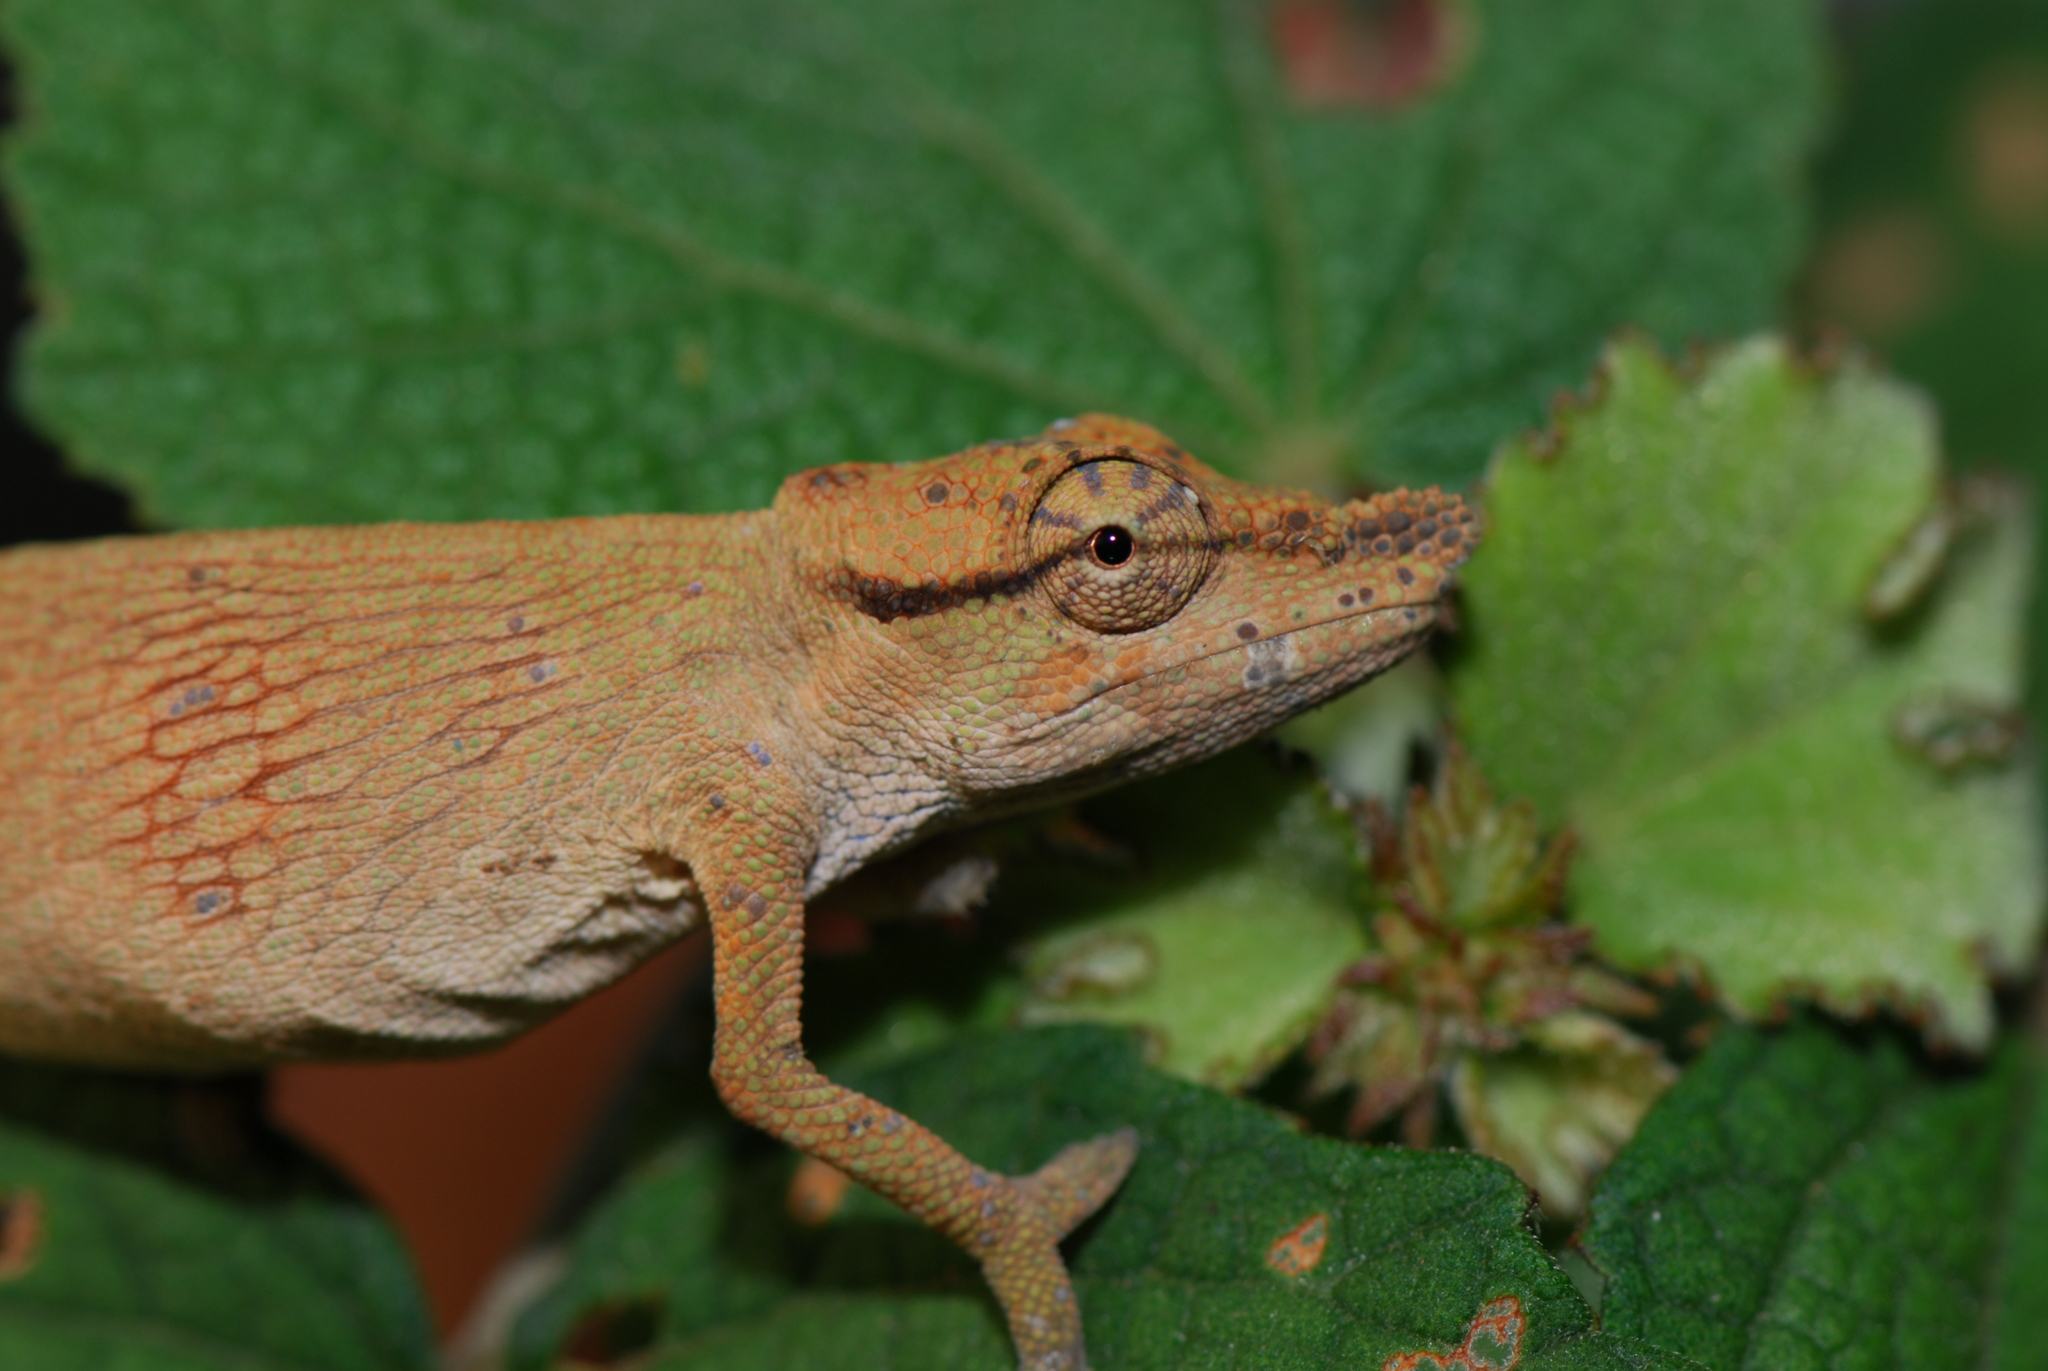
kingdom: Animalia
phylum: Chordata
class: Squamata
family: Chamaeleonidae
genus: Calumma
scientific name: Calumma tjiasmantoi
